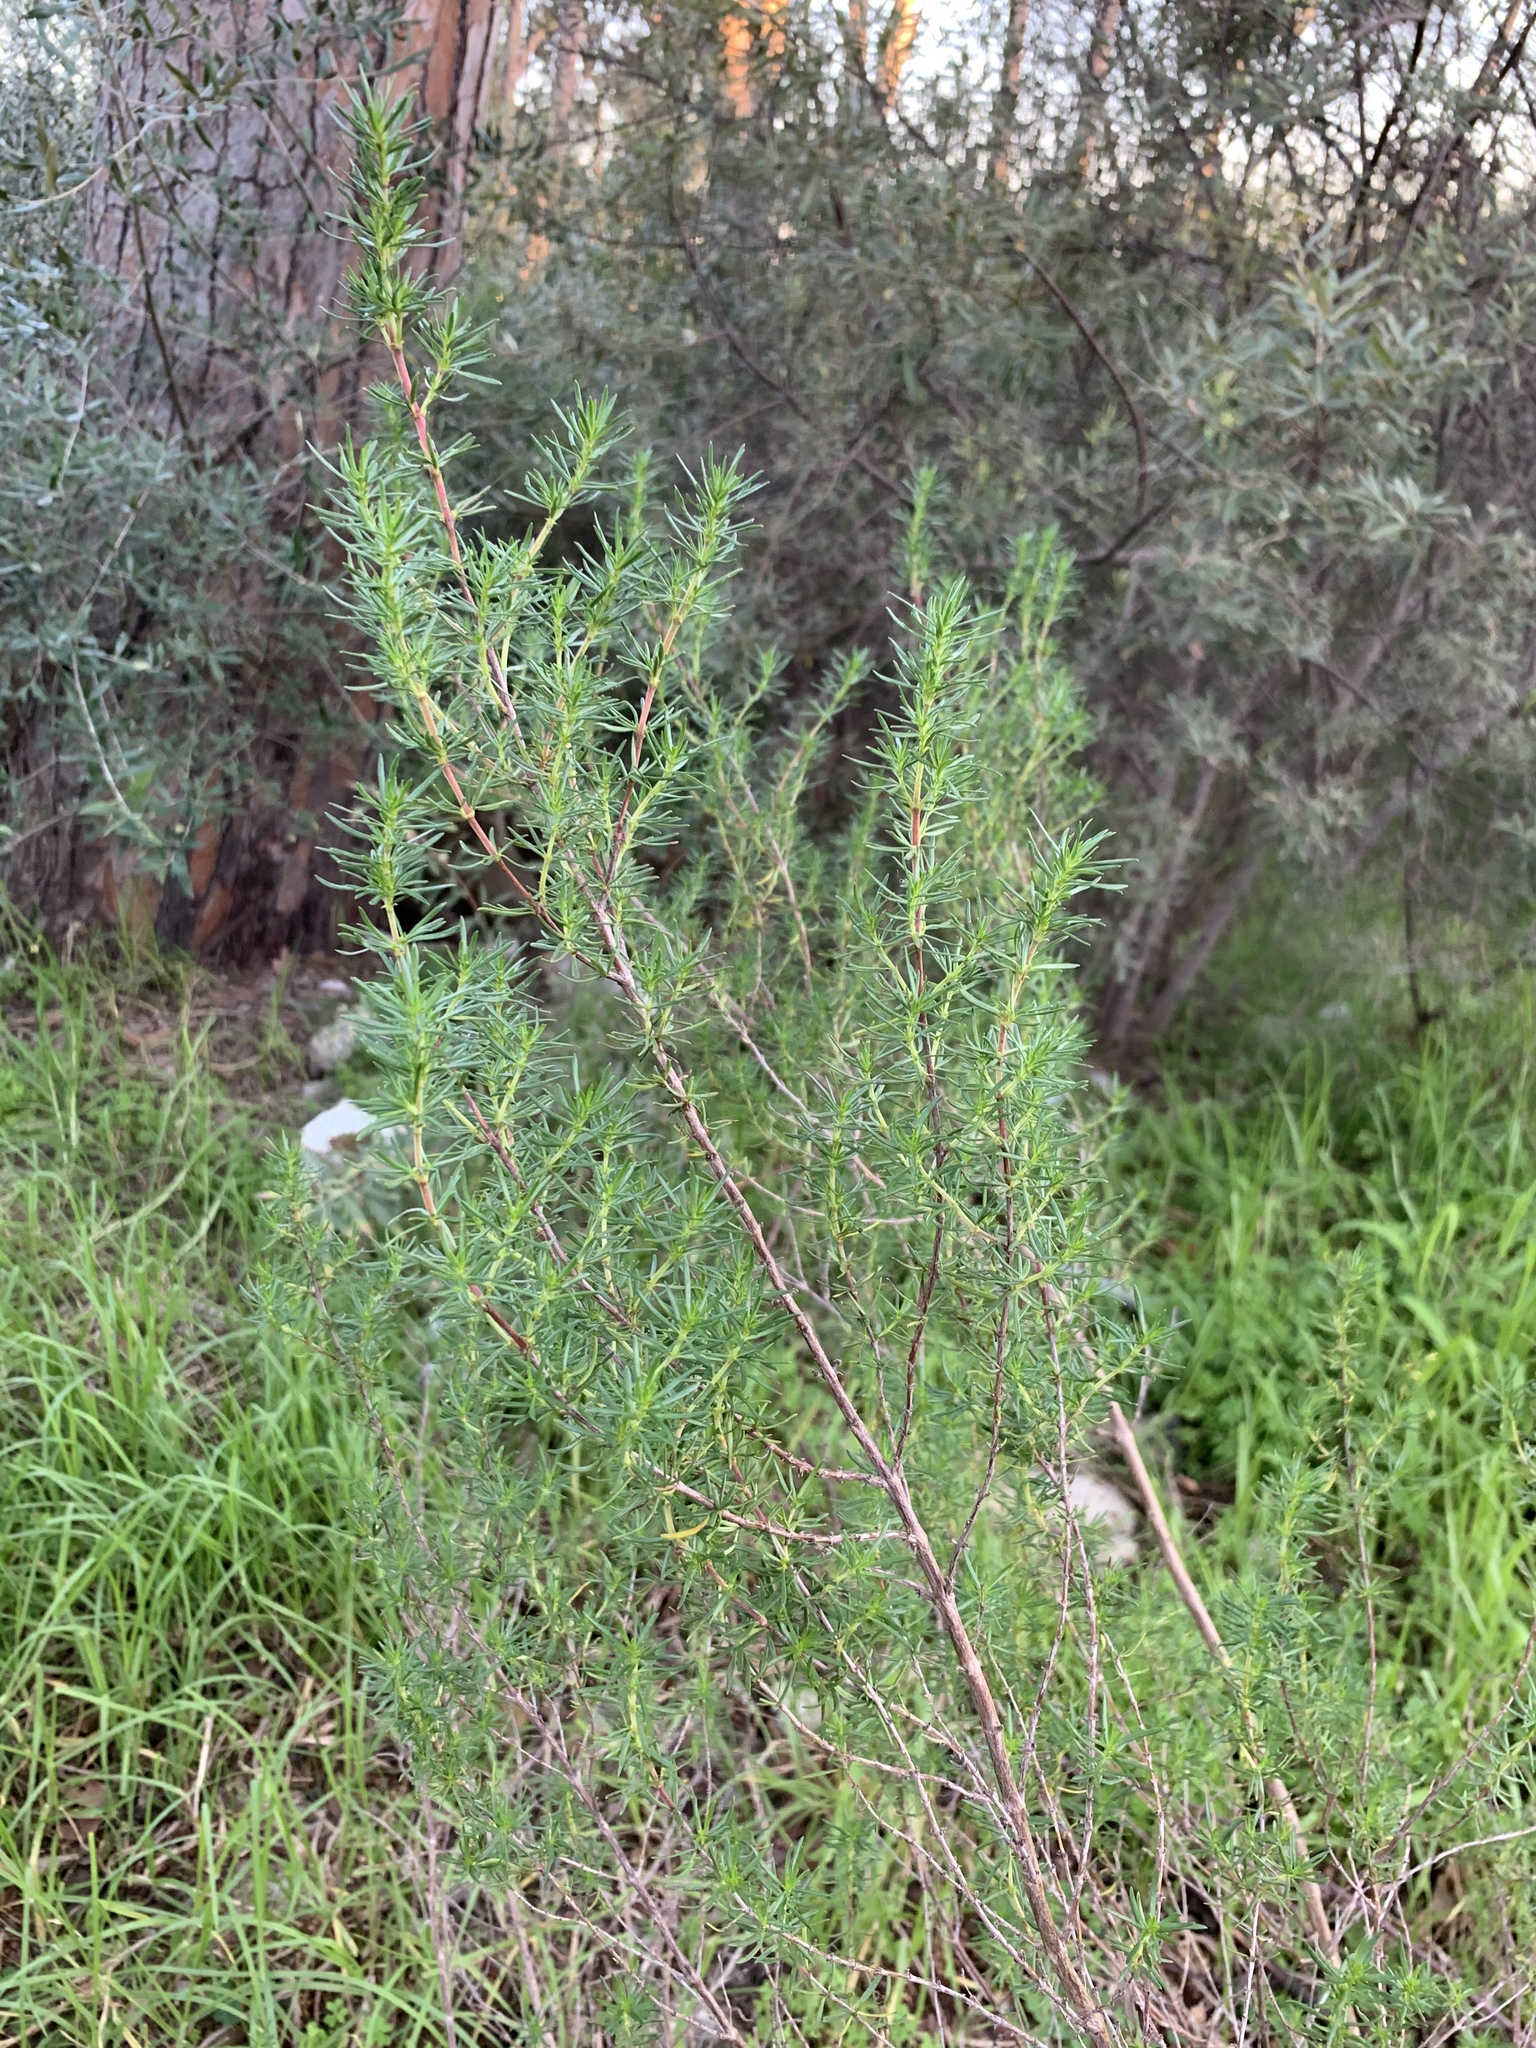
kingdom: Plantae
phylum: Tracheophyta
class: Magnoliopsida
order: Gentianales
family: Rubiaceae
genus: Anthospermum
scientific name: Anthospermum aethiopicum
